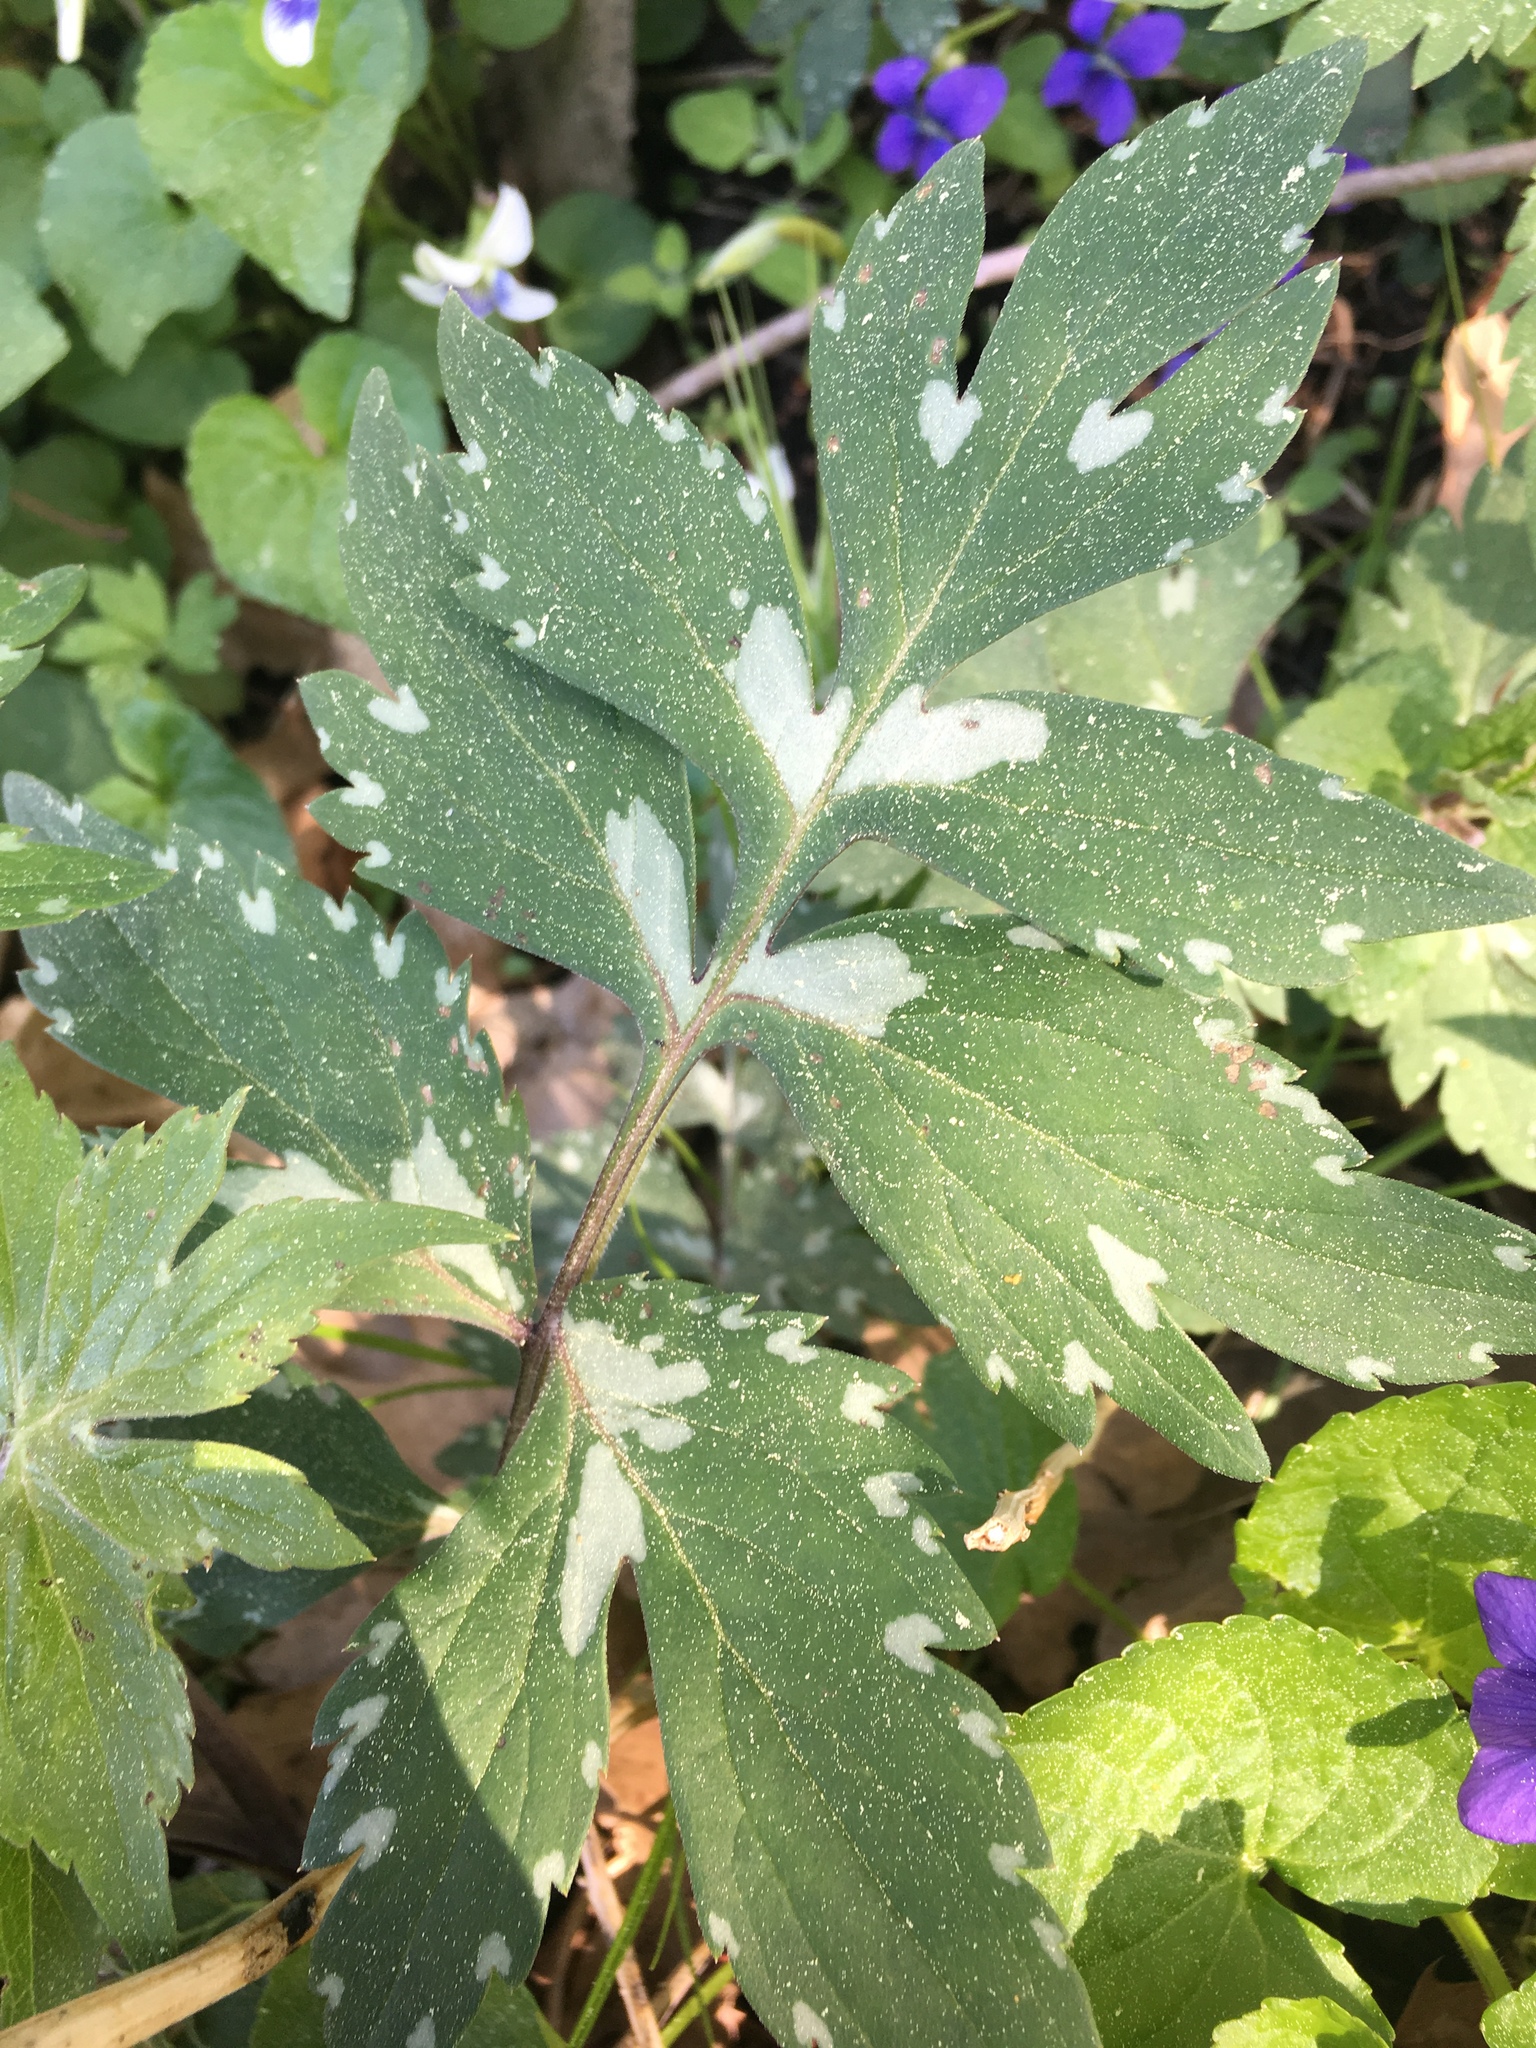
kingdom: Plantae
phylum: Tracheophyta
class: Magnoliopsida
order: Boraginales
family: Hydrophyllaceae
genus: Hydrophyllum
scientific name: Hydrophyllum virginianum
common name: Virginia waterleaf
